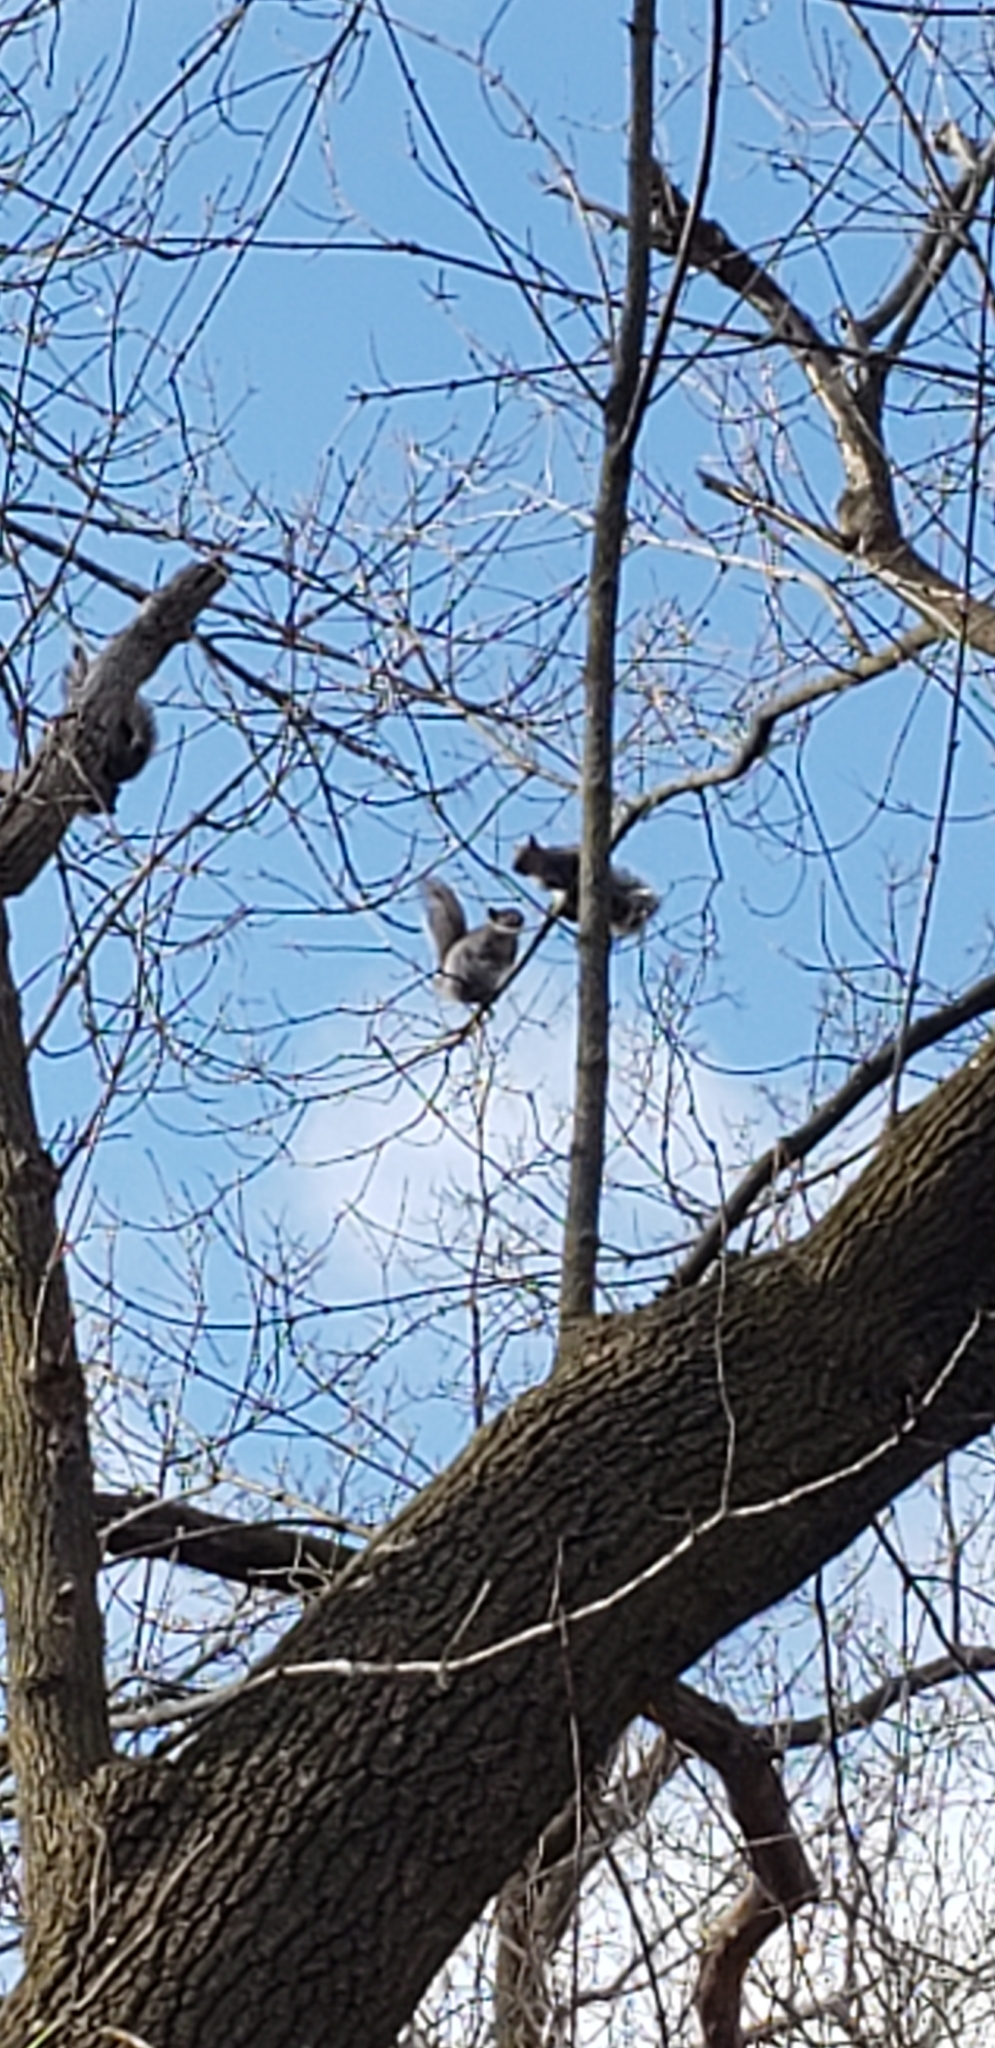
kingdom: Animalia
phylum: Chordata
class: Mammalia
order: Rodentia
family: Sciuridae
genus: Sciurus
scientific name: Sciurus carolinensis
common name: Eastern gray squirrel
